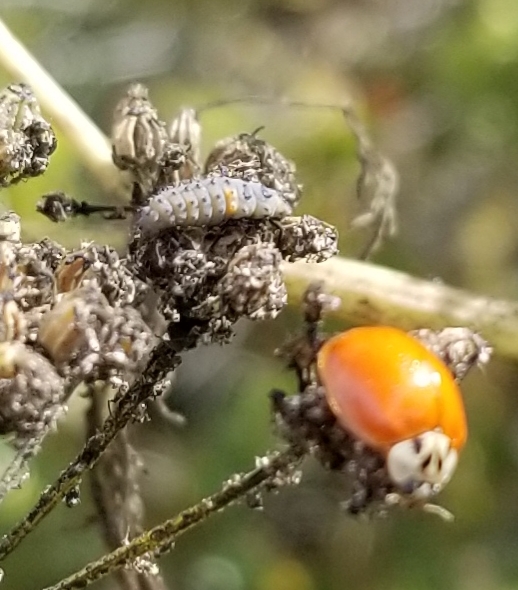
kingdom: Animalia
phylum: Arthropoda
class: Insecta
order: Coleoptera
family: Coccinellidae
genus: Harmonia
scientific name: Harmonia axyridis
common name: Harlequin ladybird
